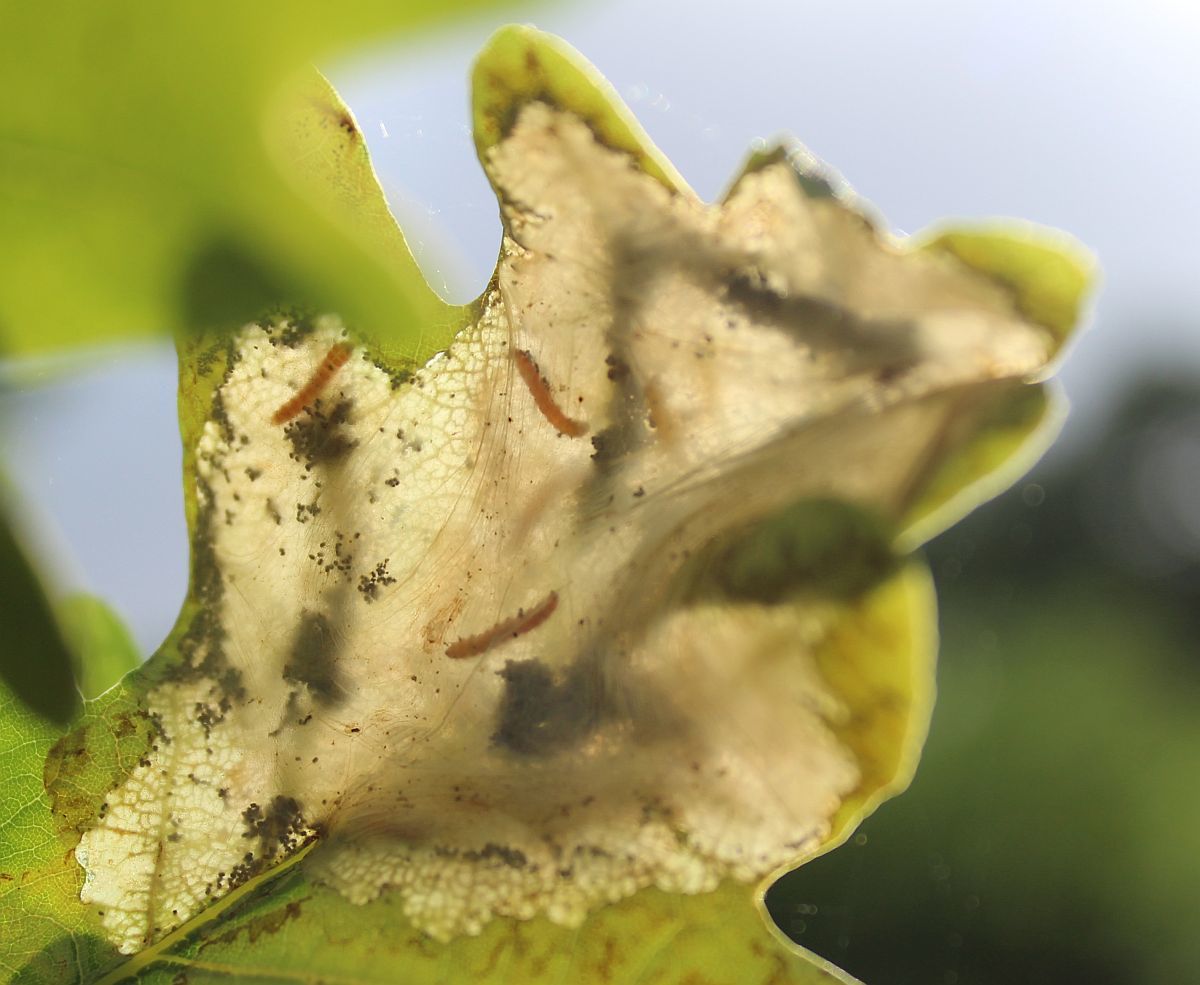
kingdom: Animalia
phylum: Arthropoda
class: Insecta
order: Lepidoptera
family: Gracillariidae
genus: Acrocercops
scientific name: Acrocercops brongniardella
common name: Brown oak slender
